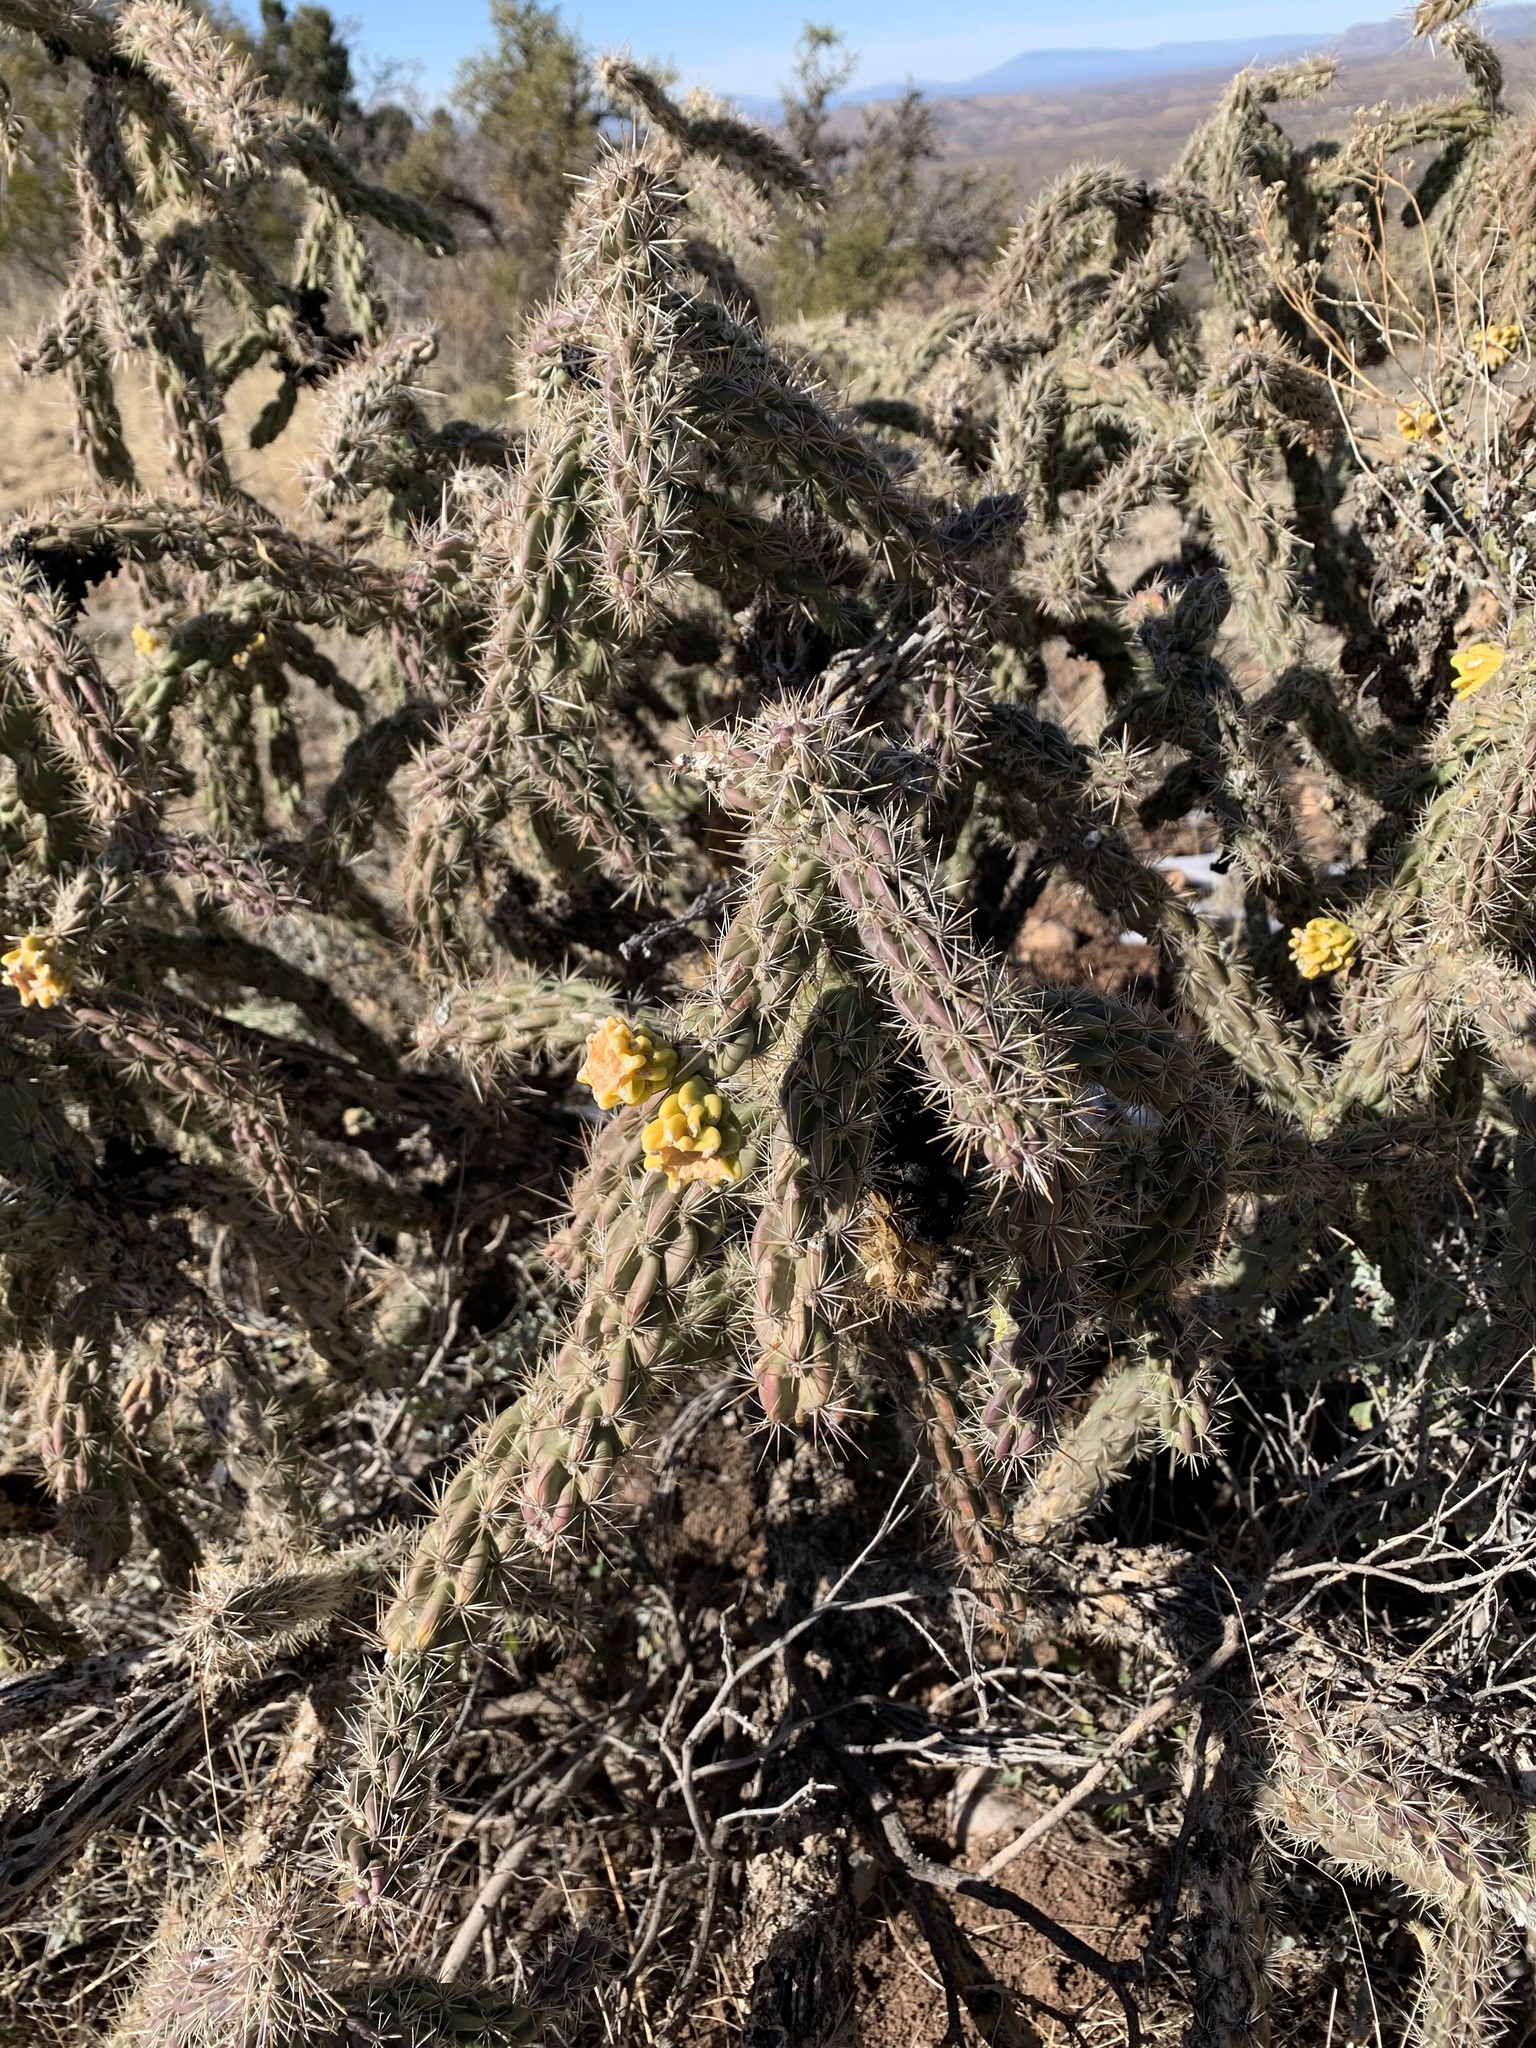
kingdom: Plantae
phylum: Tracheophyta
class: Magnoliopsida
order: Caryophyllales
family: Cactaceae
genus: Cylindropuntia
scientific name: Cylindropuntia imbricata
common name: Candelabrum cactus
